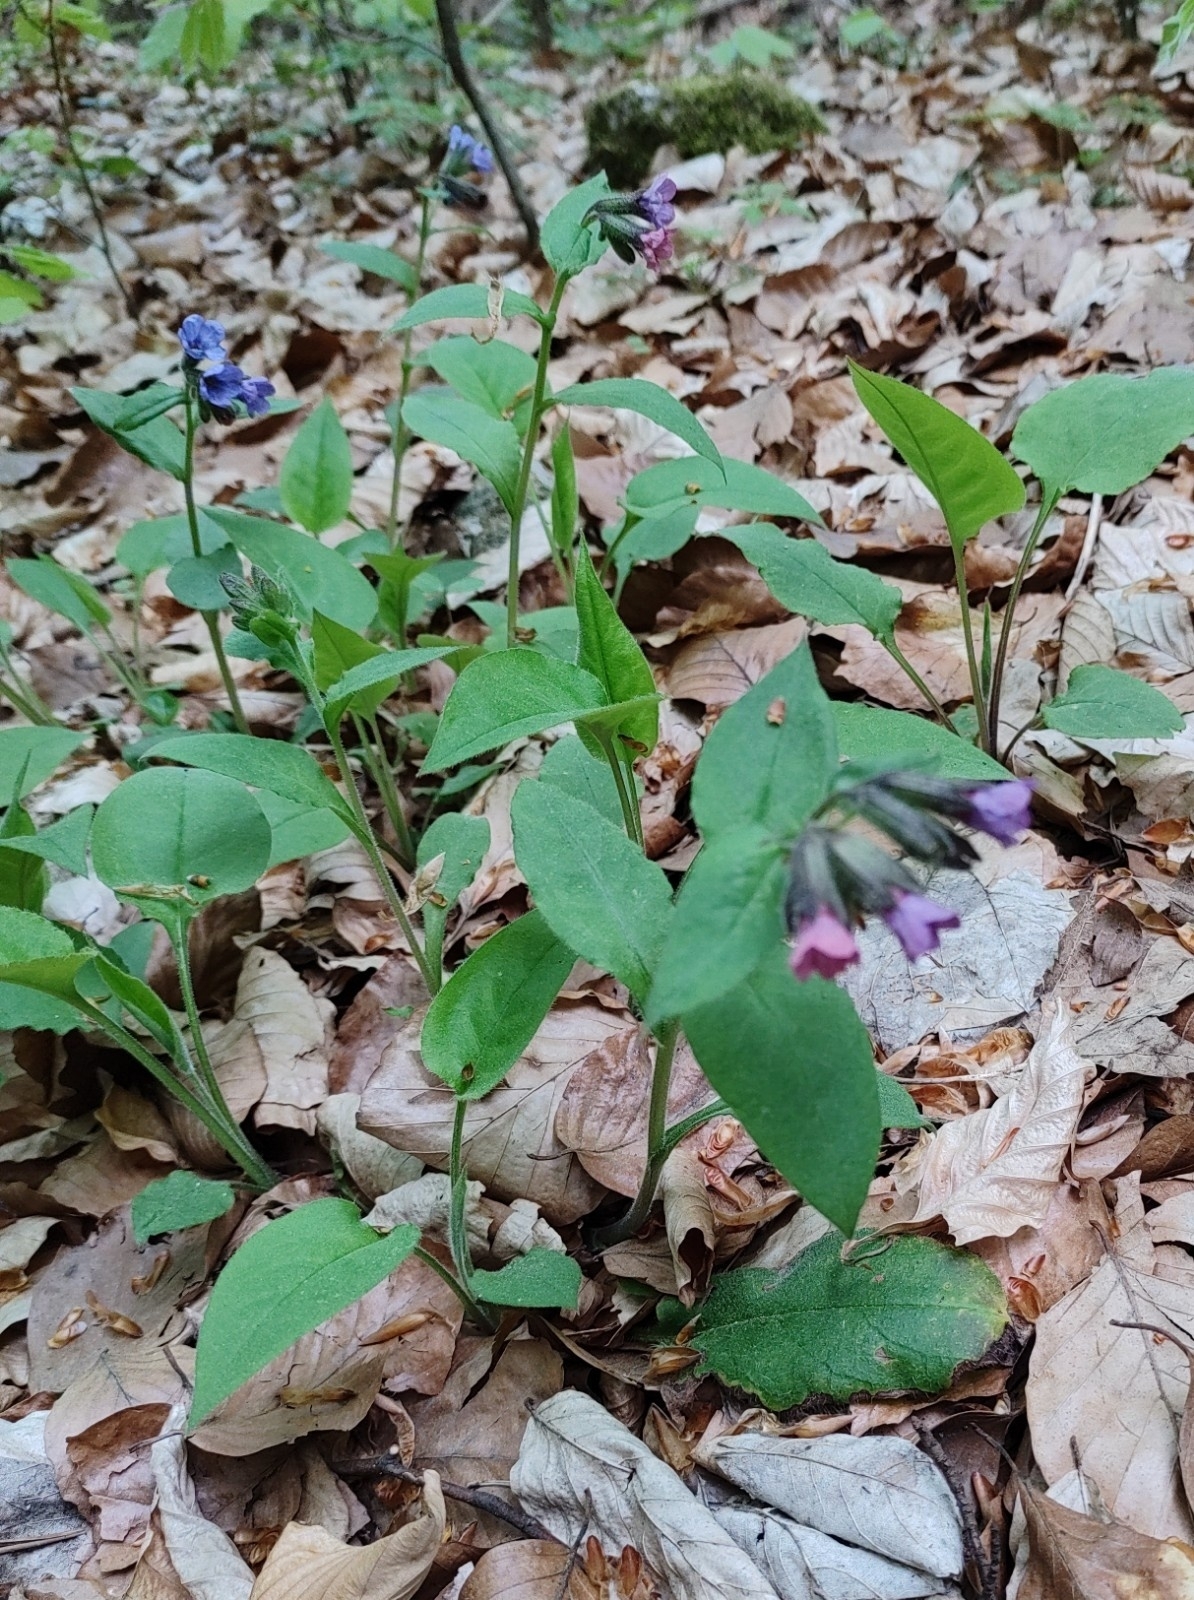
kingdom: Plantae
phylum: Tracheophyta
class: Magnoliopsida
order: Boraginales
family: Boraginaceae
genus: Pulmonaria
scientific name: Pulmonaria obscura
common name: Suffolk lungwort
